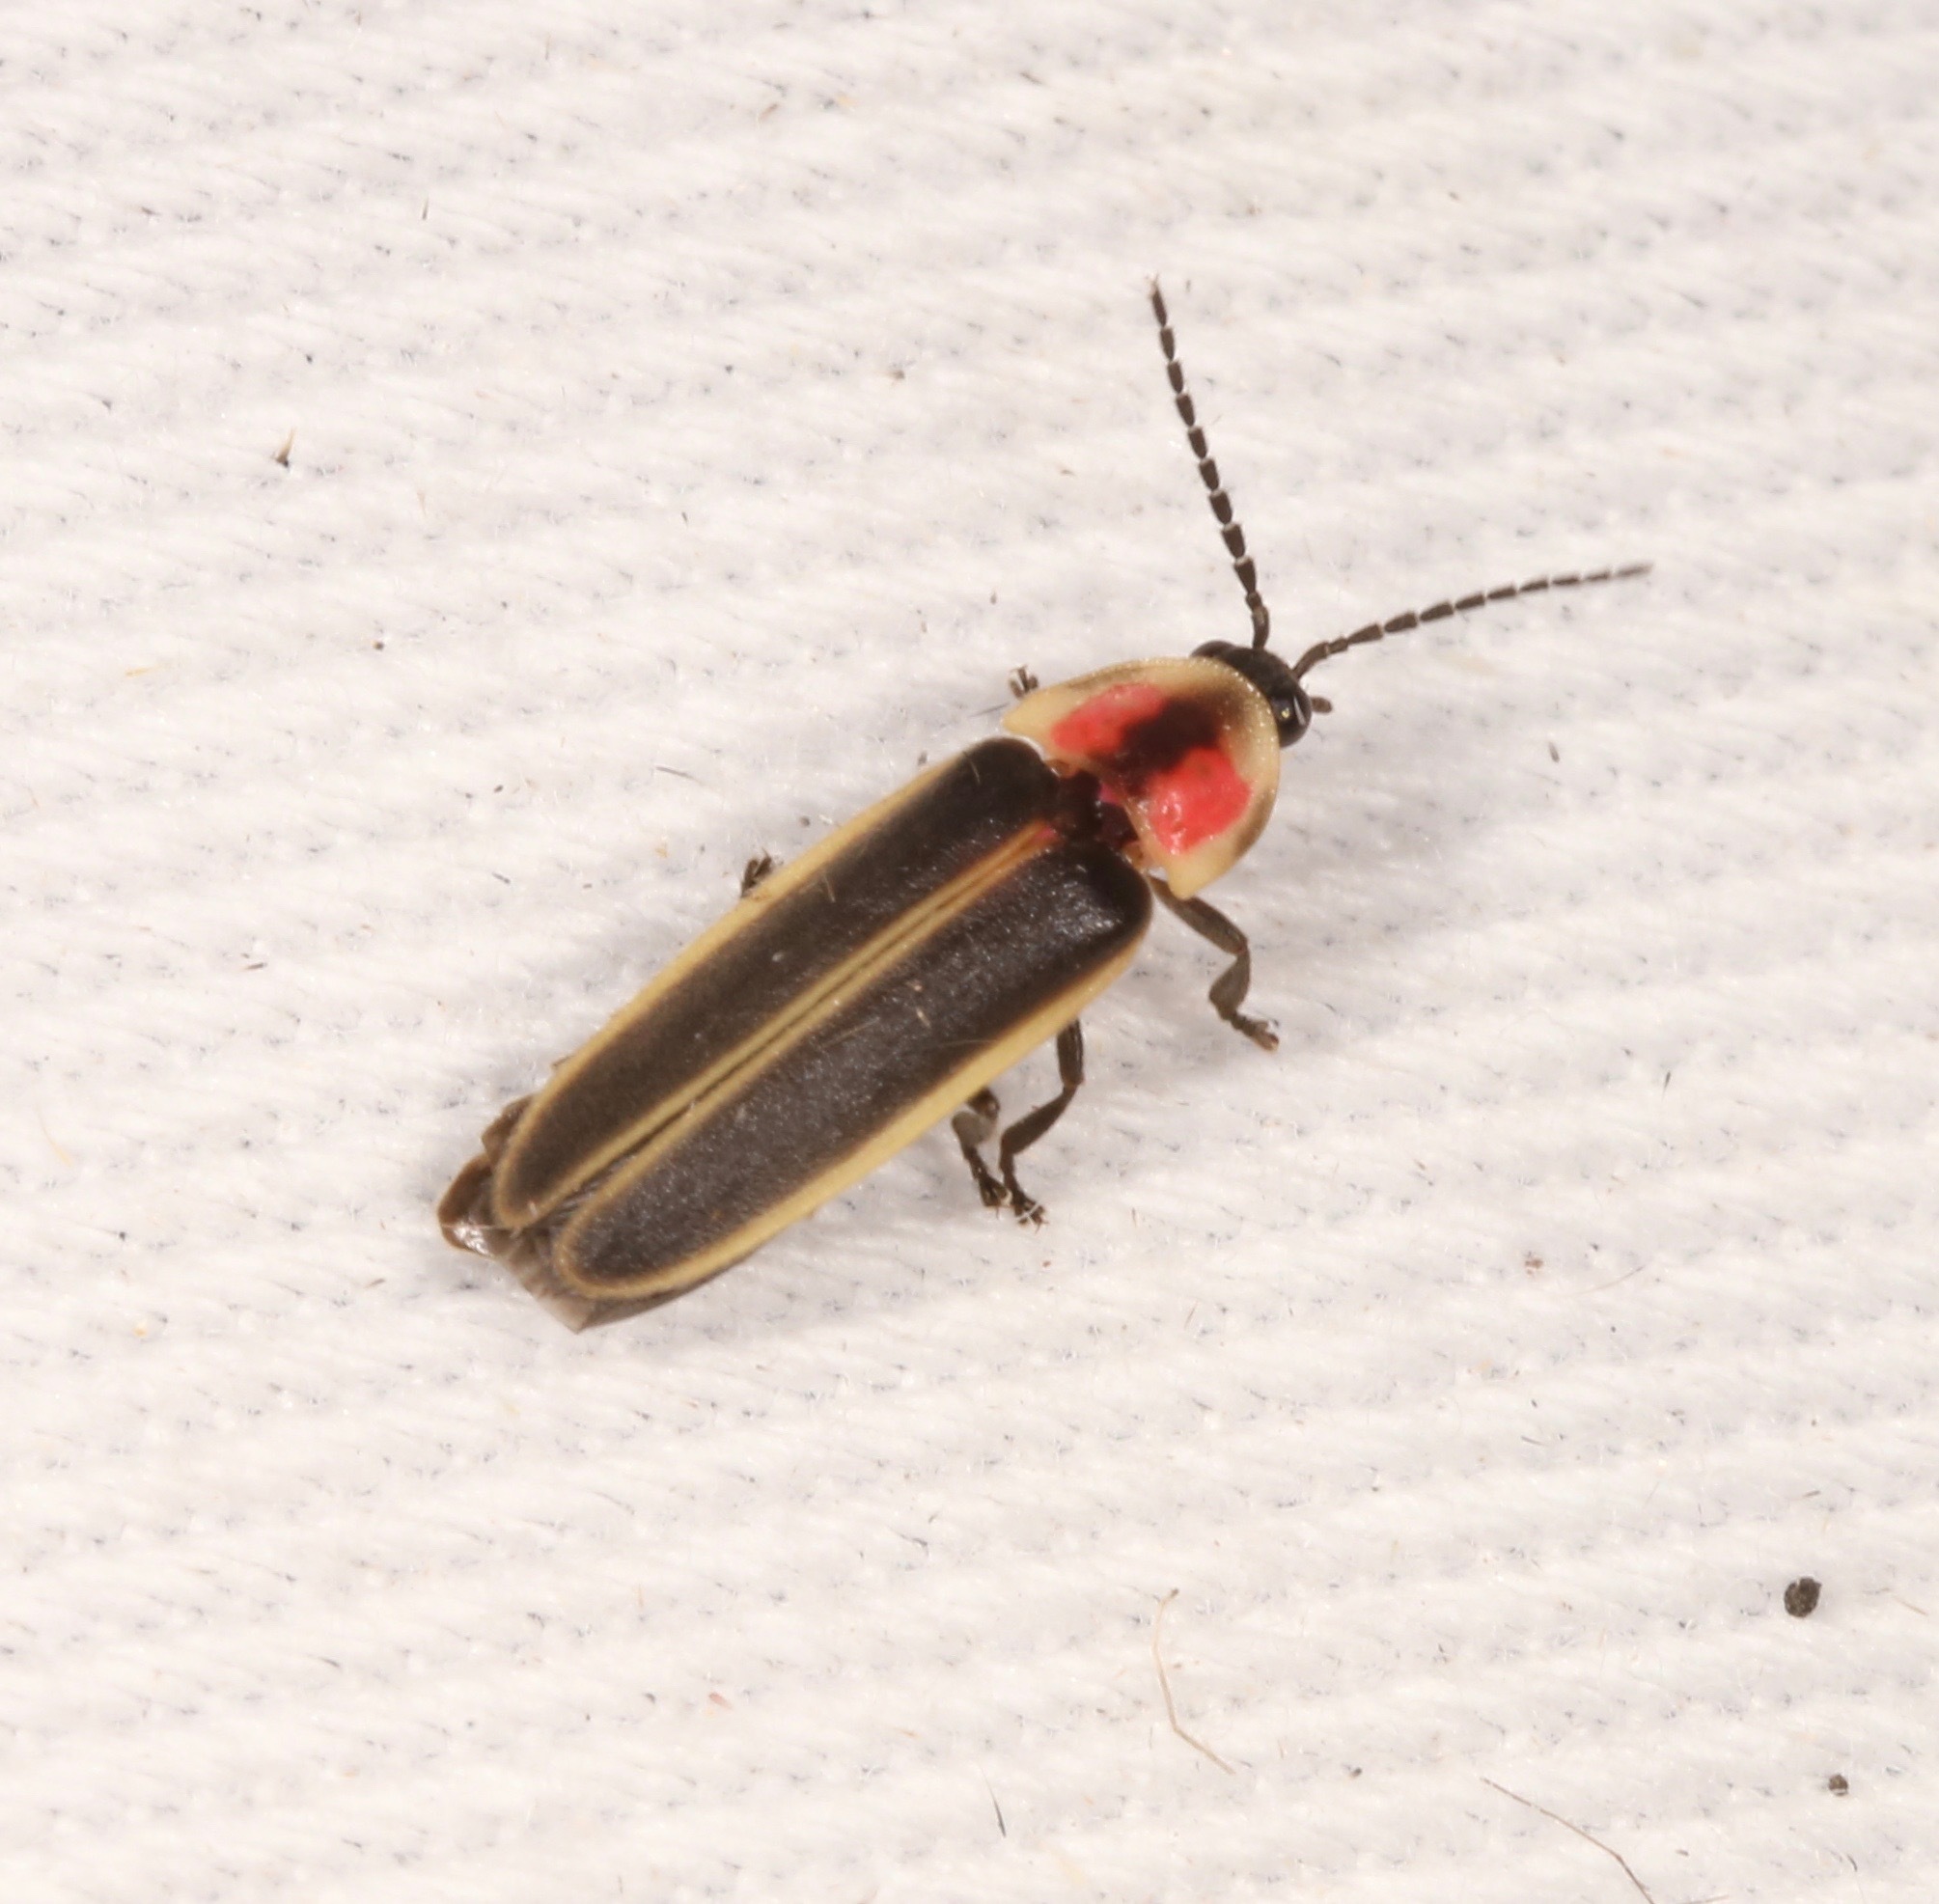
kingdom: Animalia
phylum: Arthropoda
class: Insecta
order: Coleoptera
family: Lampyridae
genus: Photinus
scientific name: Photinus knulli
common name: Fall southwest firefly
